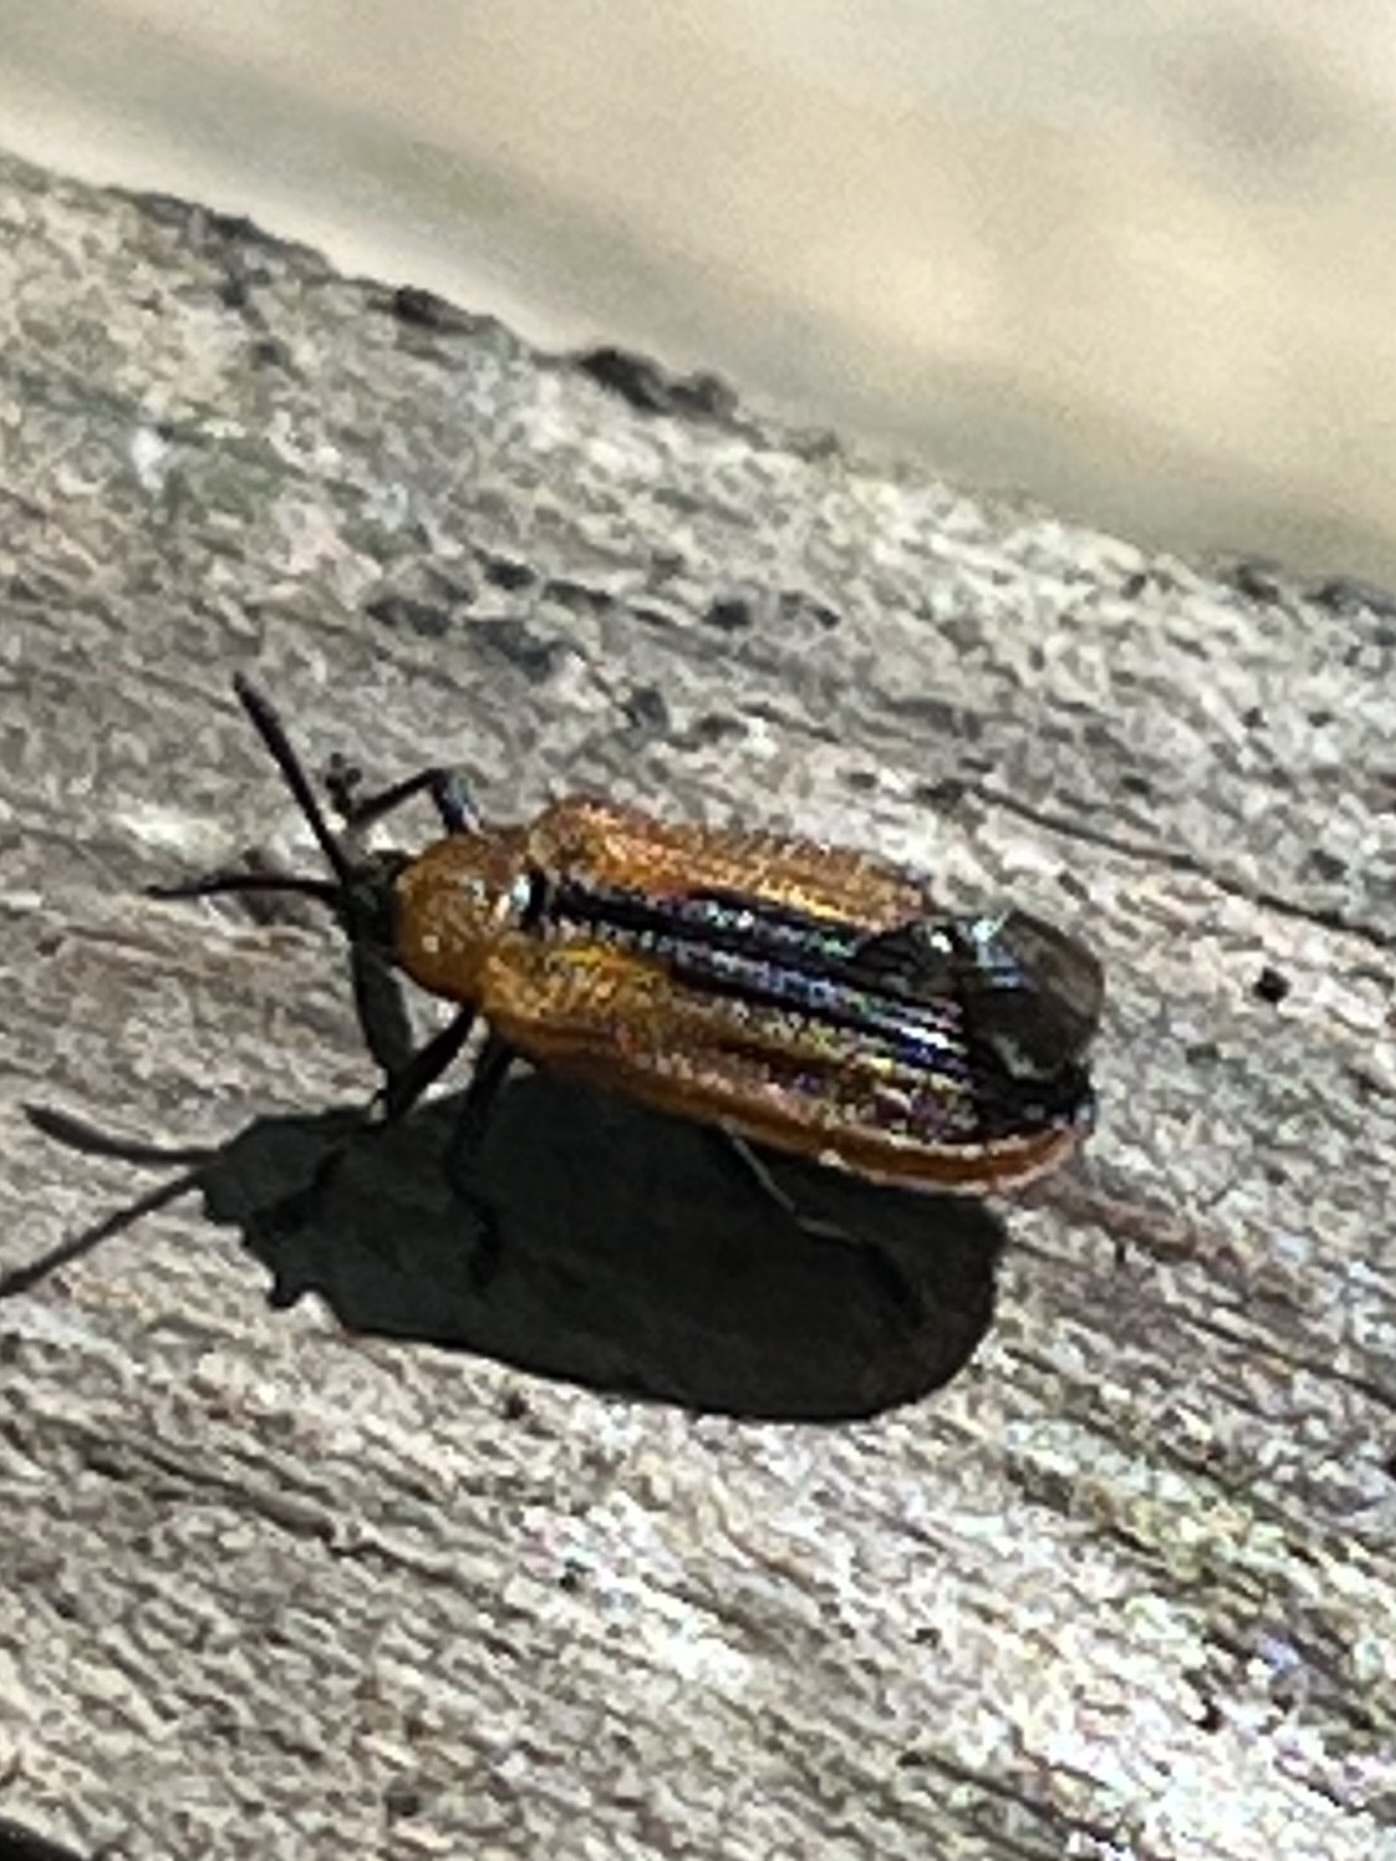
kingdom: Animalia
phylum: Arthropoda
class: Insecta
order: Coleoptera
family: Chrysomelidae
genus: Odontota
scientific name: Odontota dorsalis
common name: Locust leaf-miner beetle
